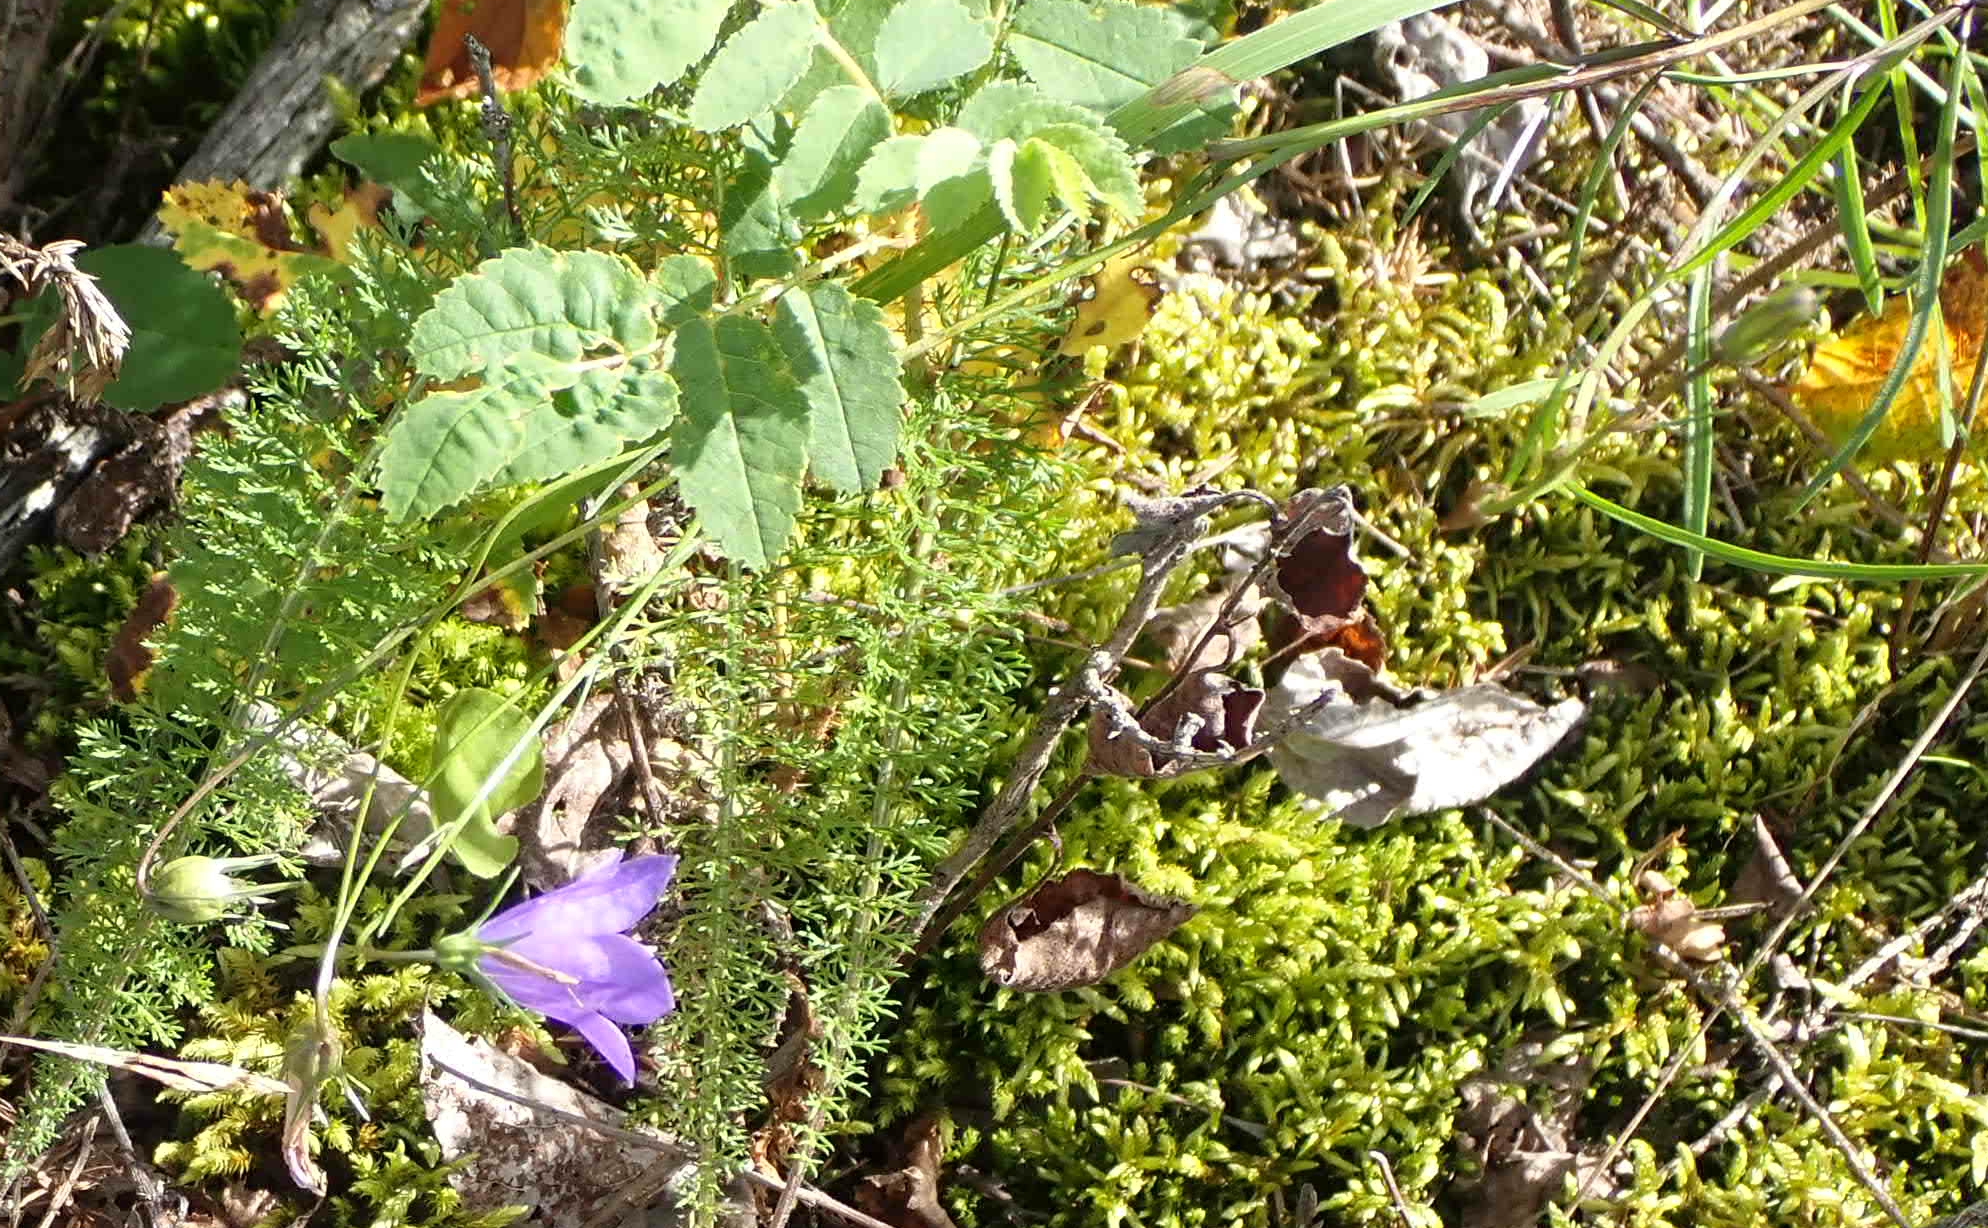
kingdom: Plantae
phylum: Tracheophyta
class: Magnoliopsida
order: Asterales
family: Campanulaceae
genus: Campanula
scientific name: Campanula petiolata
